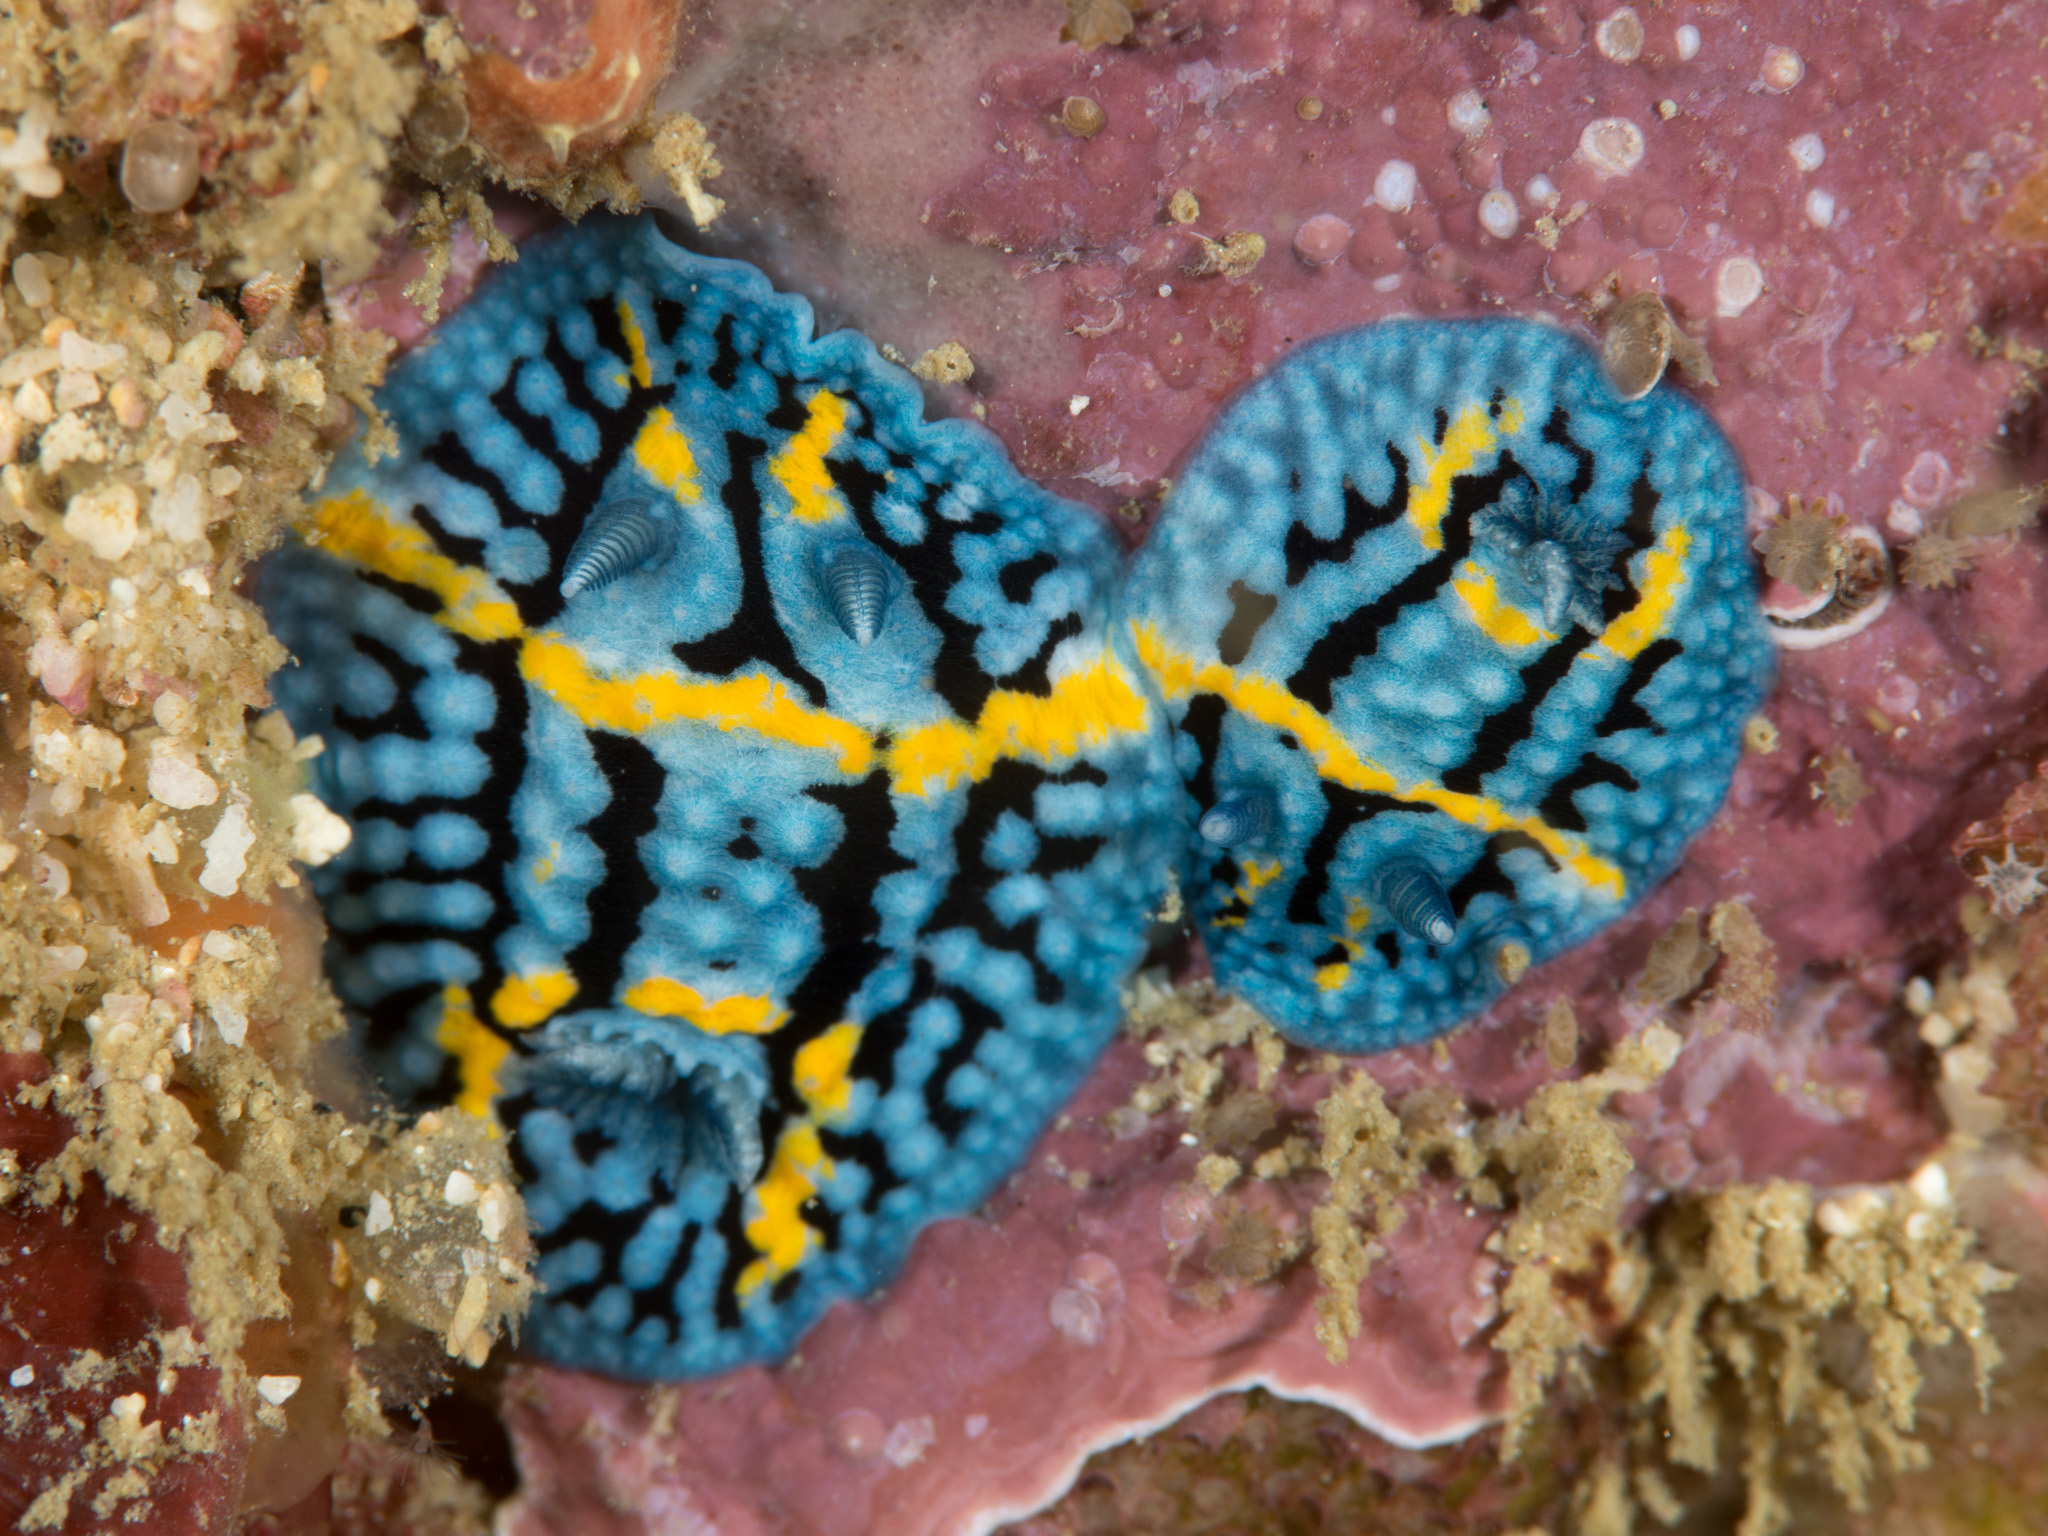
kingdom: Animalia
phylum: Mollusca
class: Gastropoda
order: Nudibranchia
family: Cadlinidae
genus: Aldisa
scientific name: Aldisa andersoni
